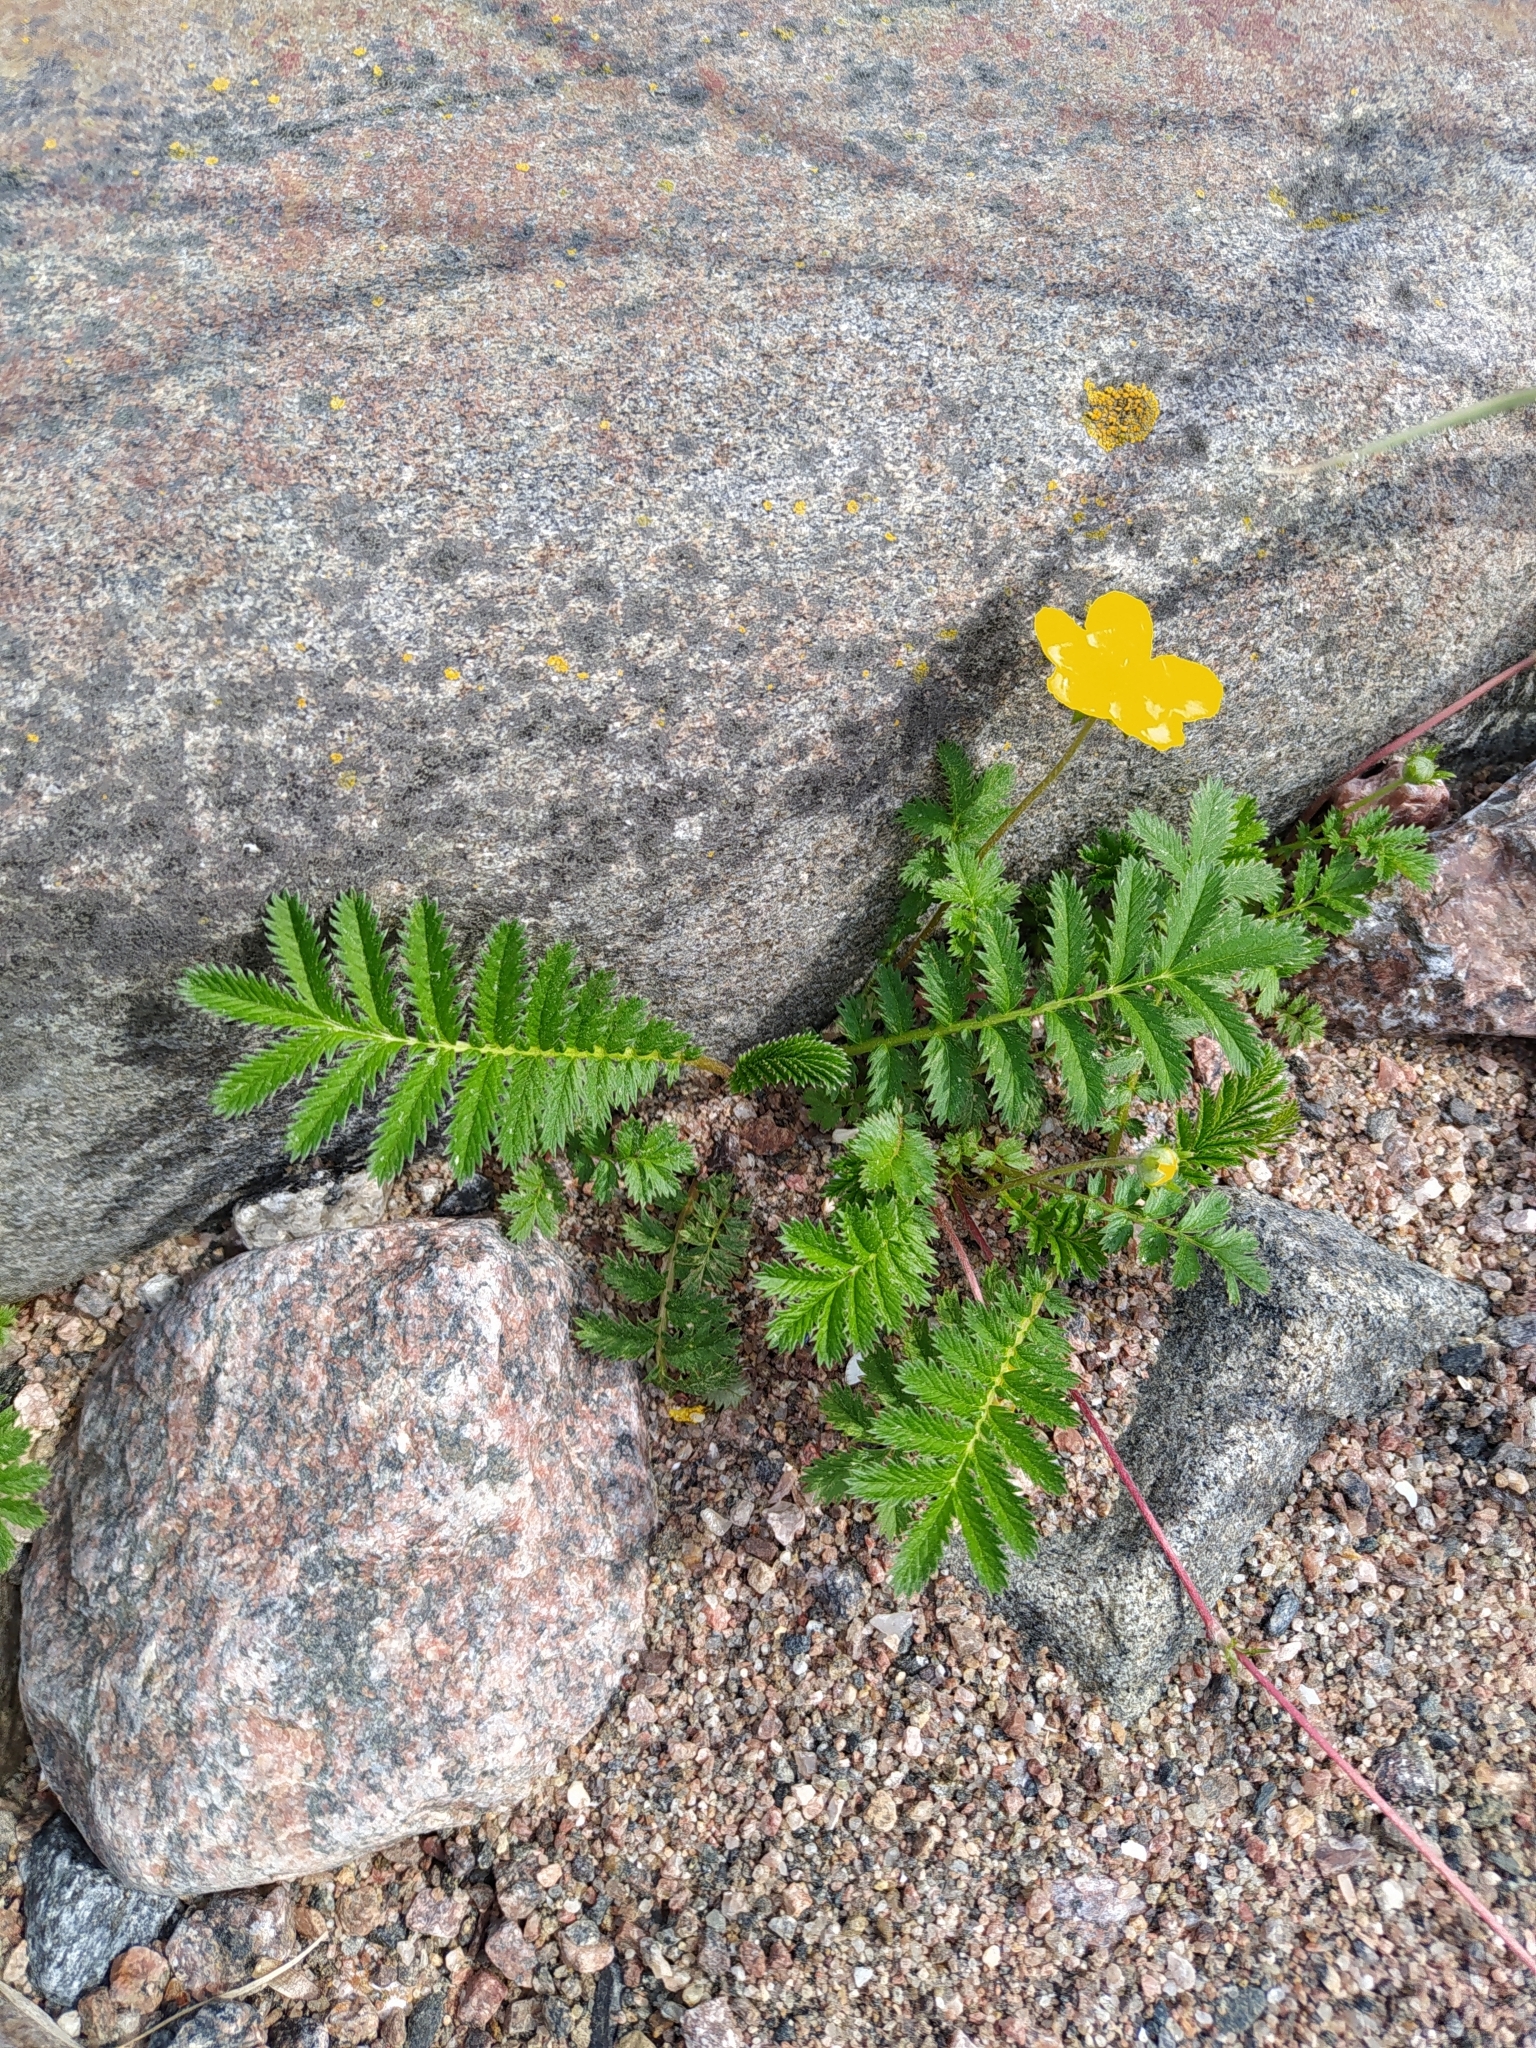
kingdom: Plantae
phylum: Tracheophyta
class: Magnoliopsida
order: Rosales
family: Rosaceae
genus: Argentina
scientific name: Argentina anserina
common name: Common silverweed
